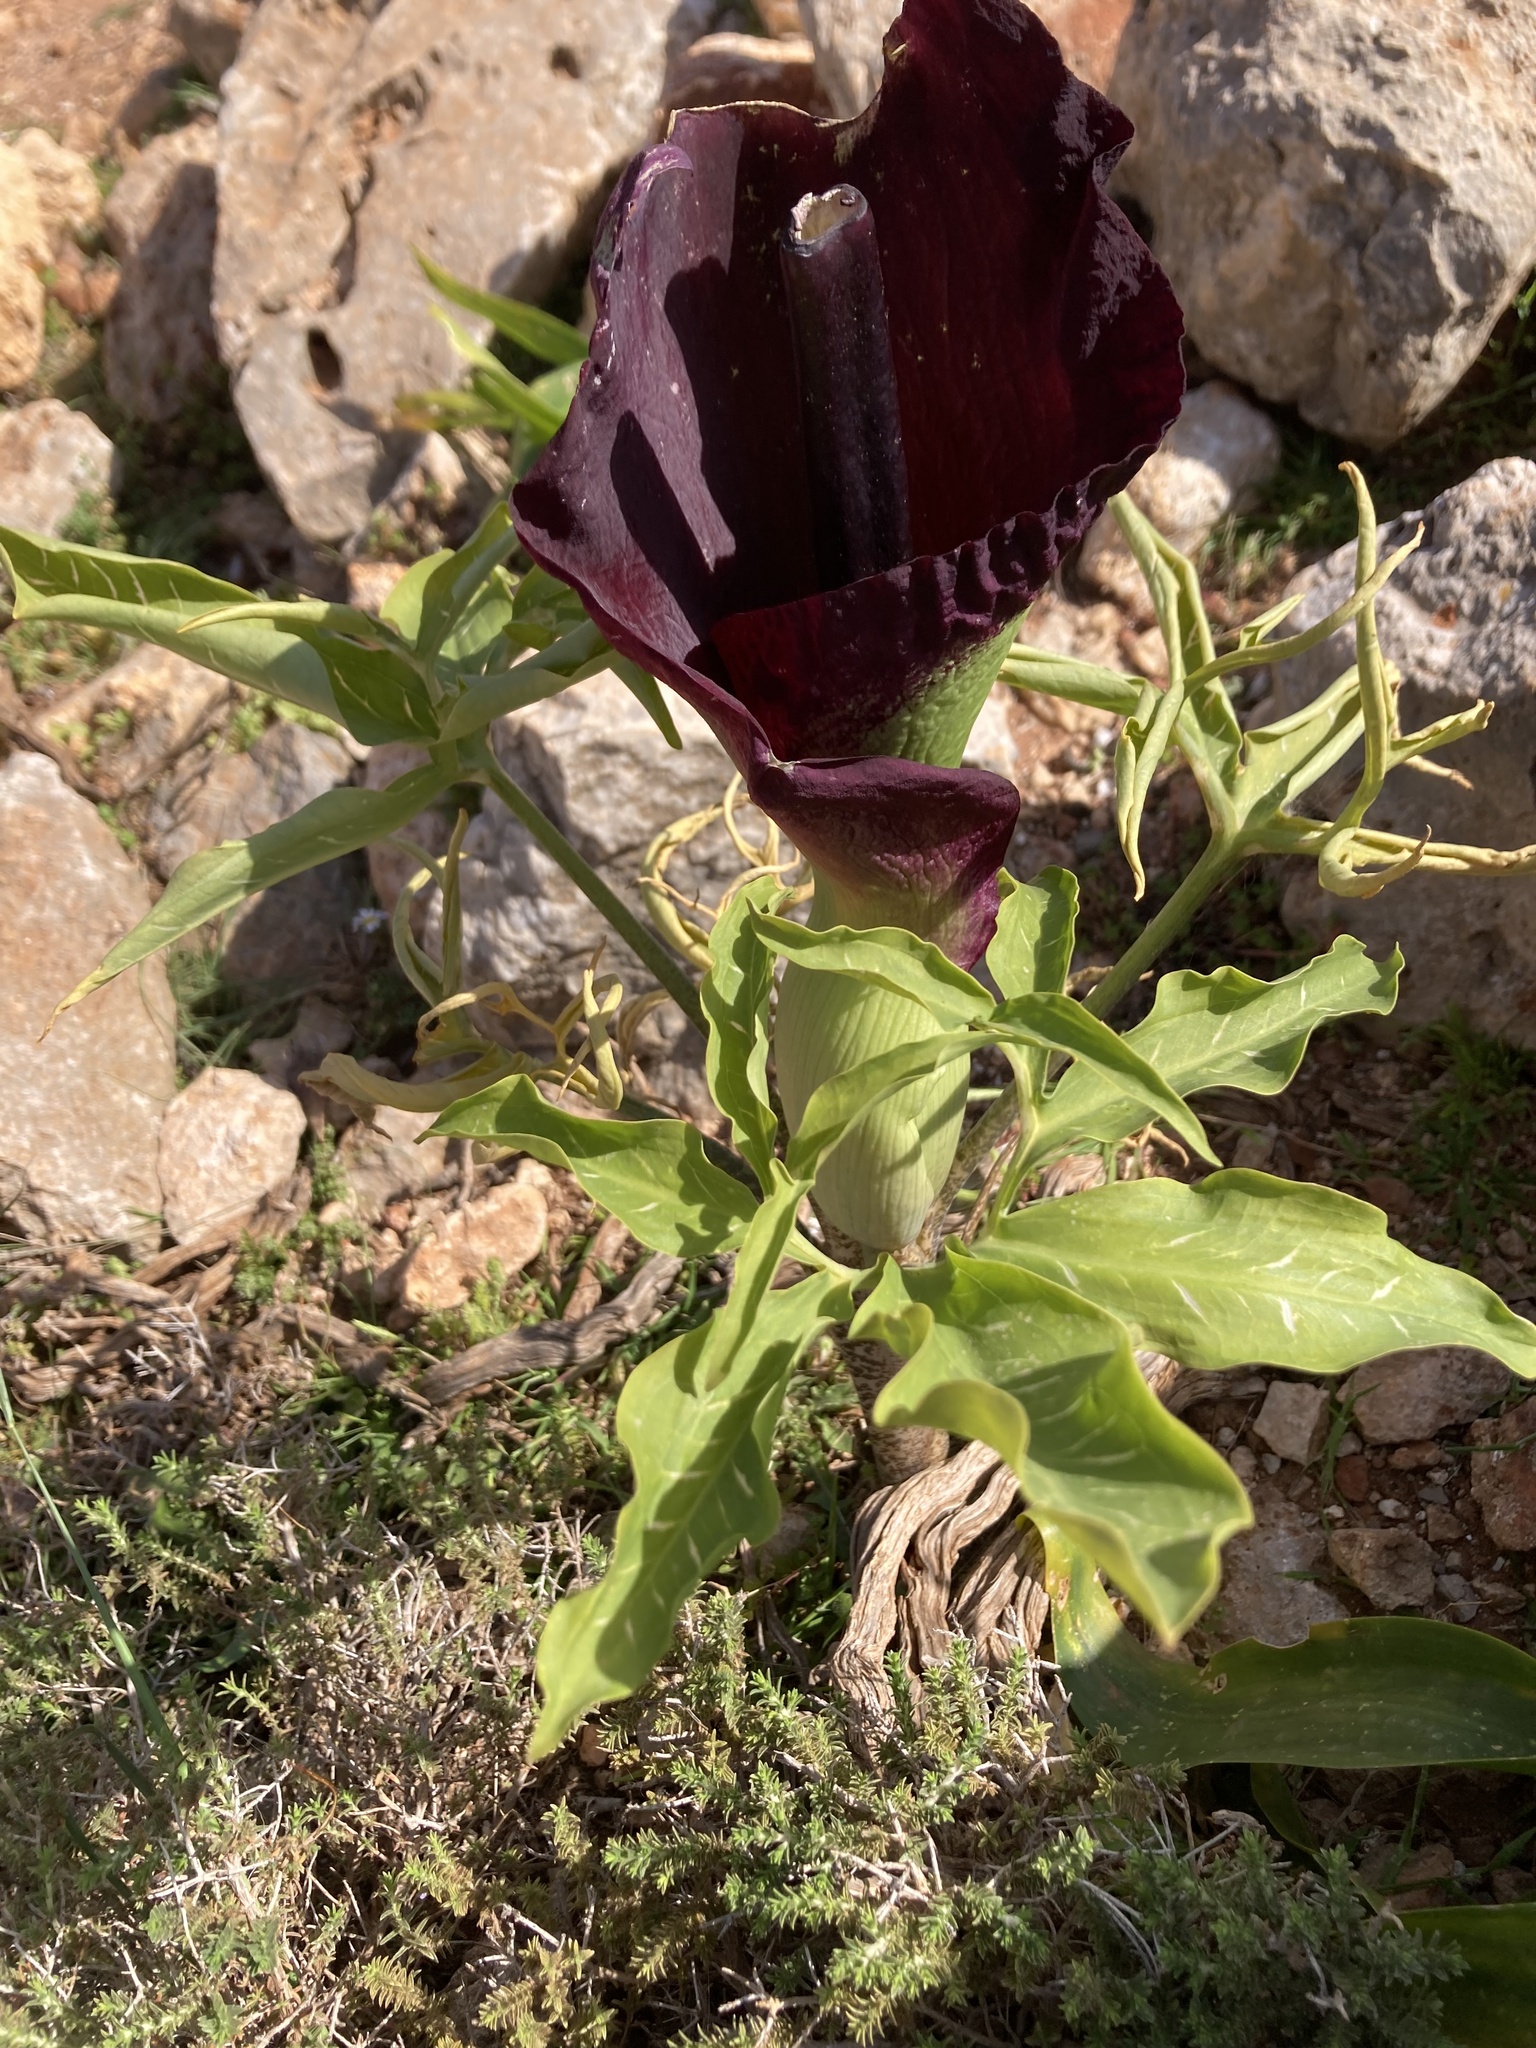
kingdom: Plantae
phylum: Tracheophyta
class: Liliopsida
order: Alismatales
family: Araceae
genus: Dracunculus
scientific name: Dracunculus vulgaris
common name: Dragon arum
